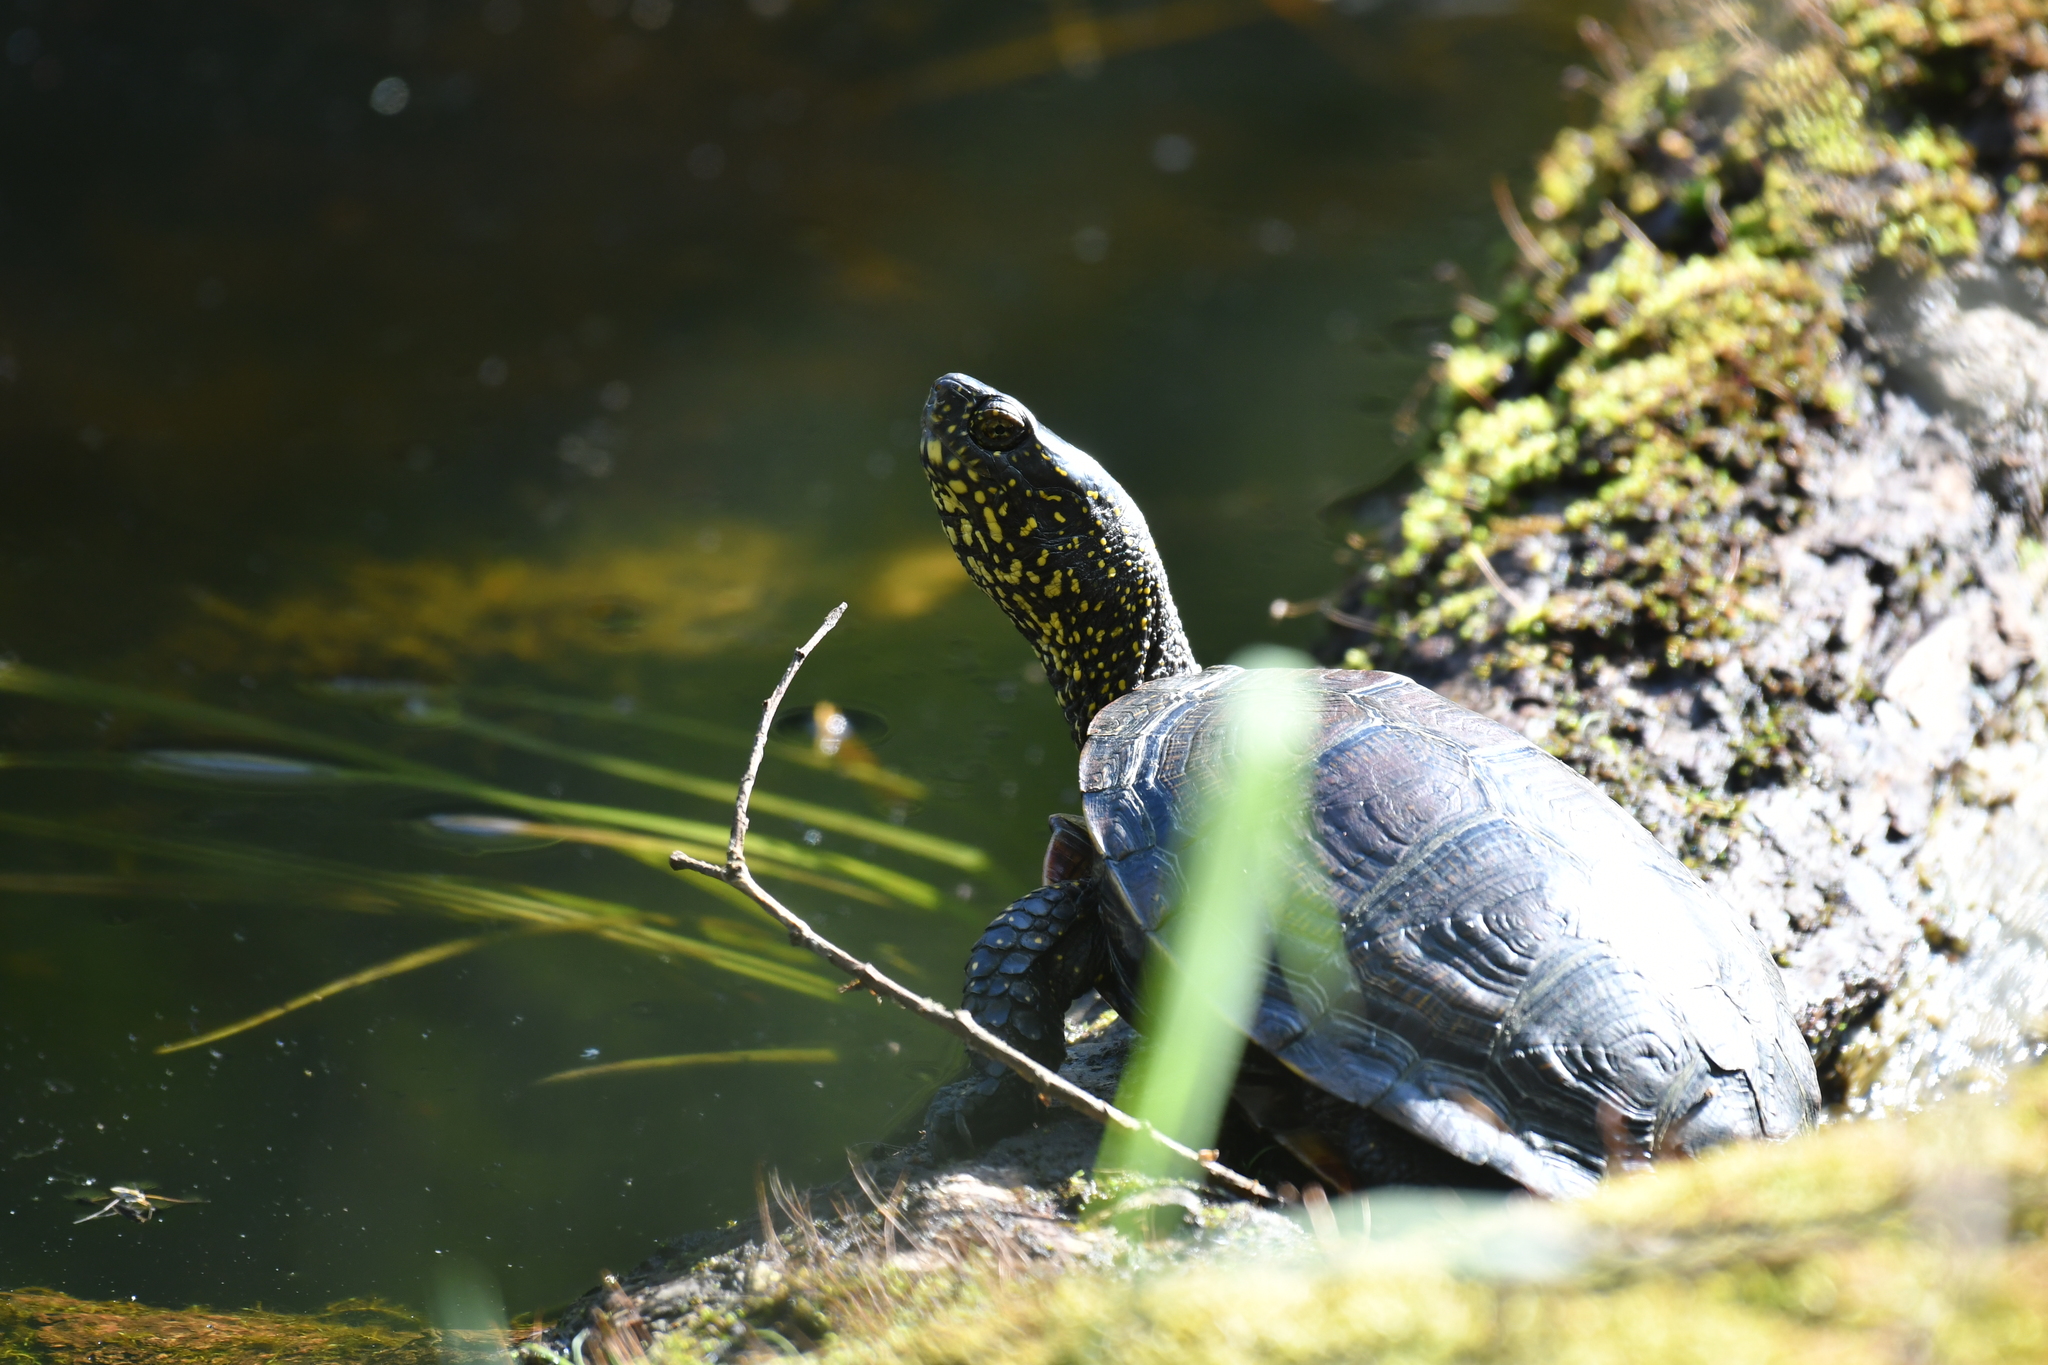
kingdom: Animalia
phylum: Chordata
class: Testudines
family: Emydidae
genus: Emys
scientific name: Emys orbicularis
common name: European pond turtle
